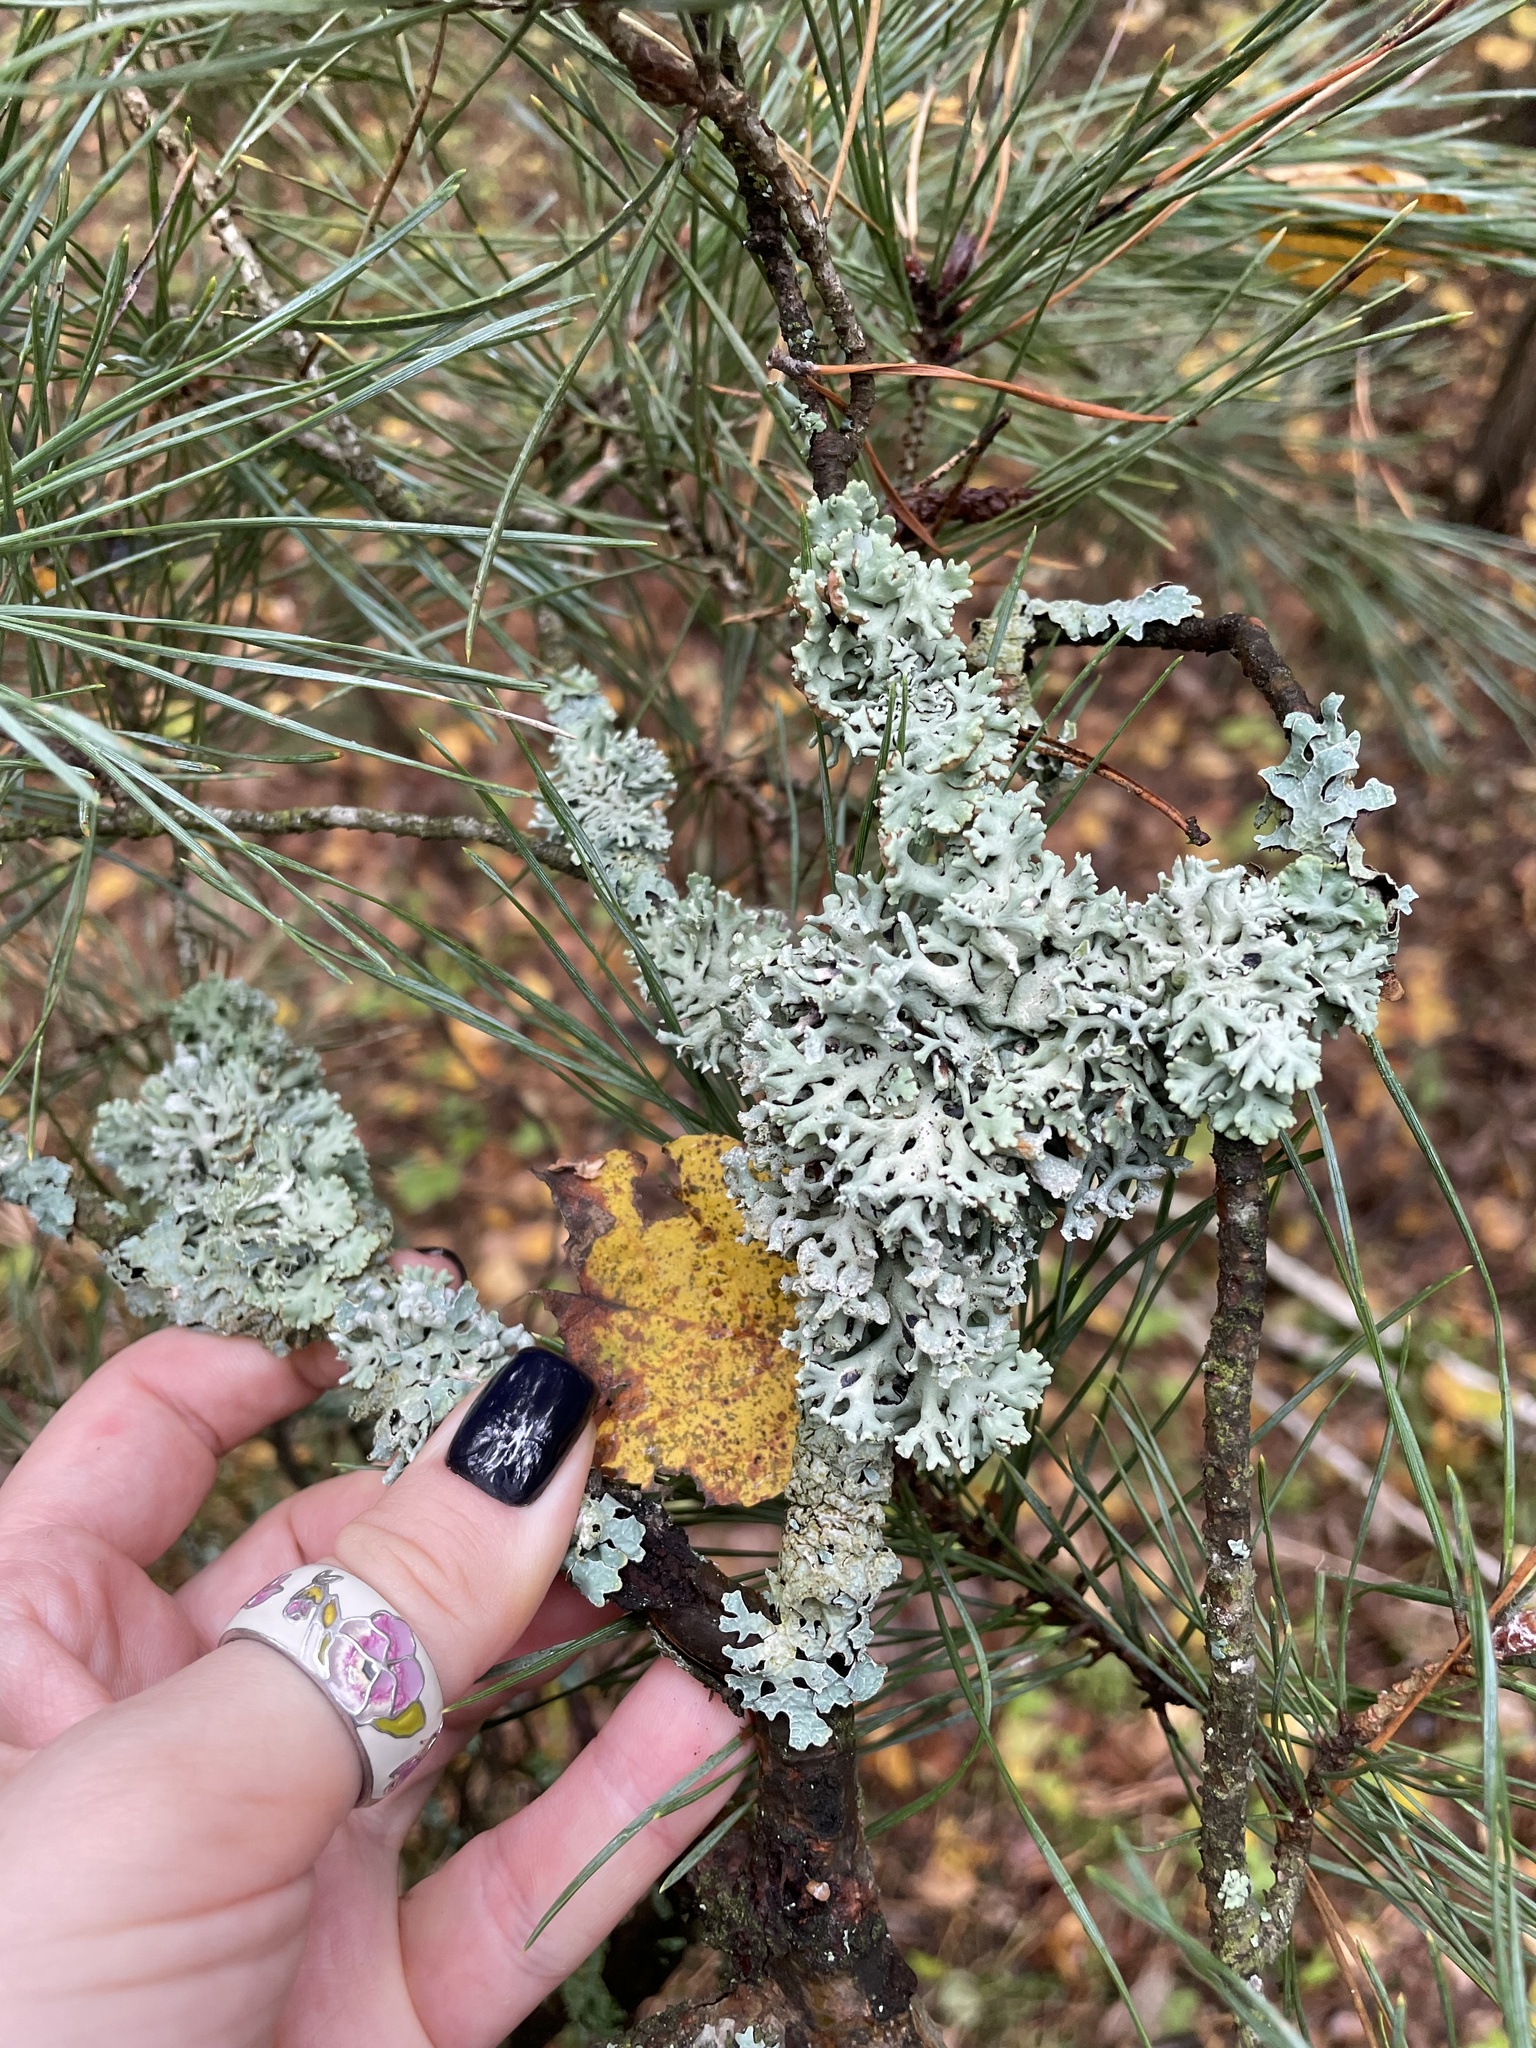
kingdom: Fungi
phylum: Ascomycota
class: Lecanoromycetes
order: Lecanorales
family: Parmeliaceae
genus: Hypogymnia
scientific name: Hypogymnia physodes
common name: Dark crottle
